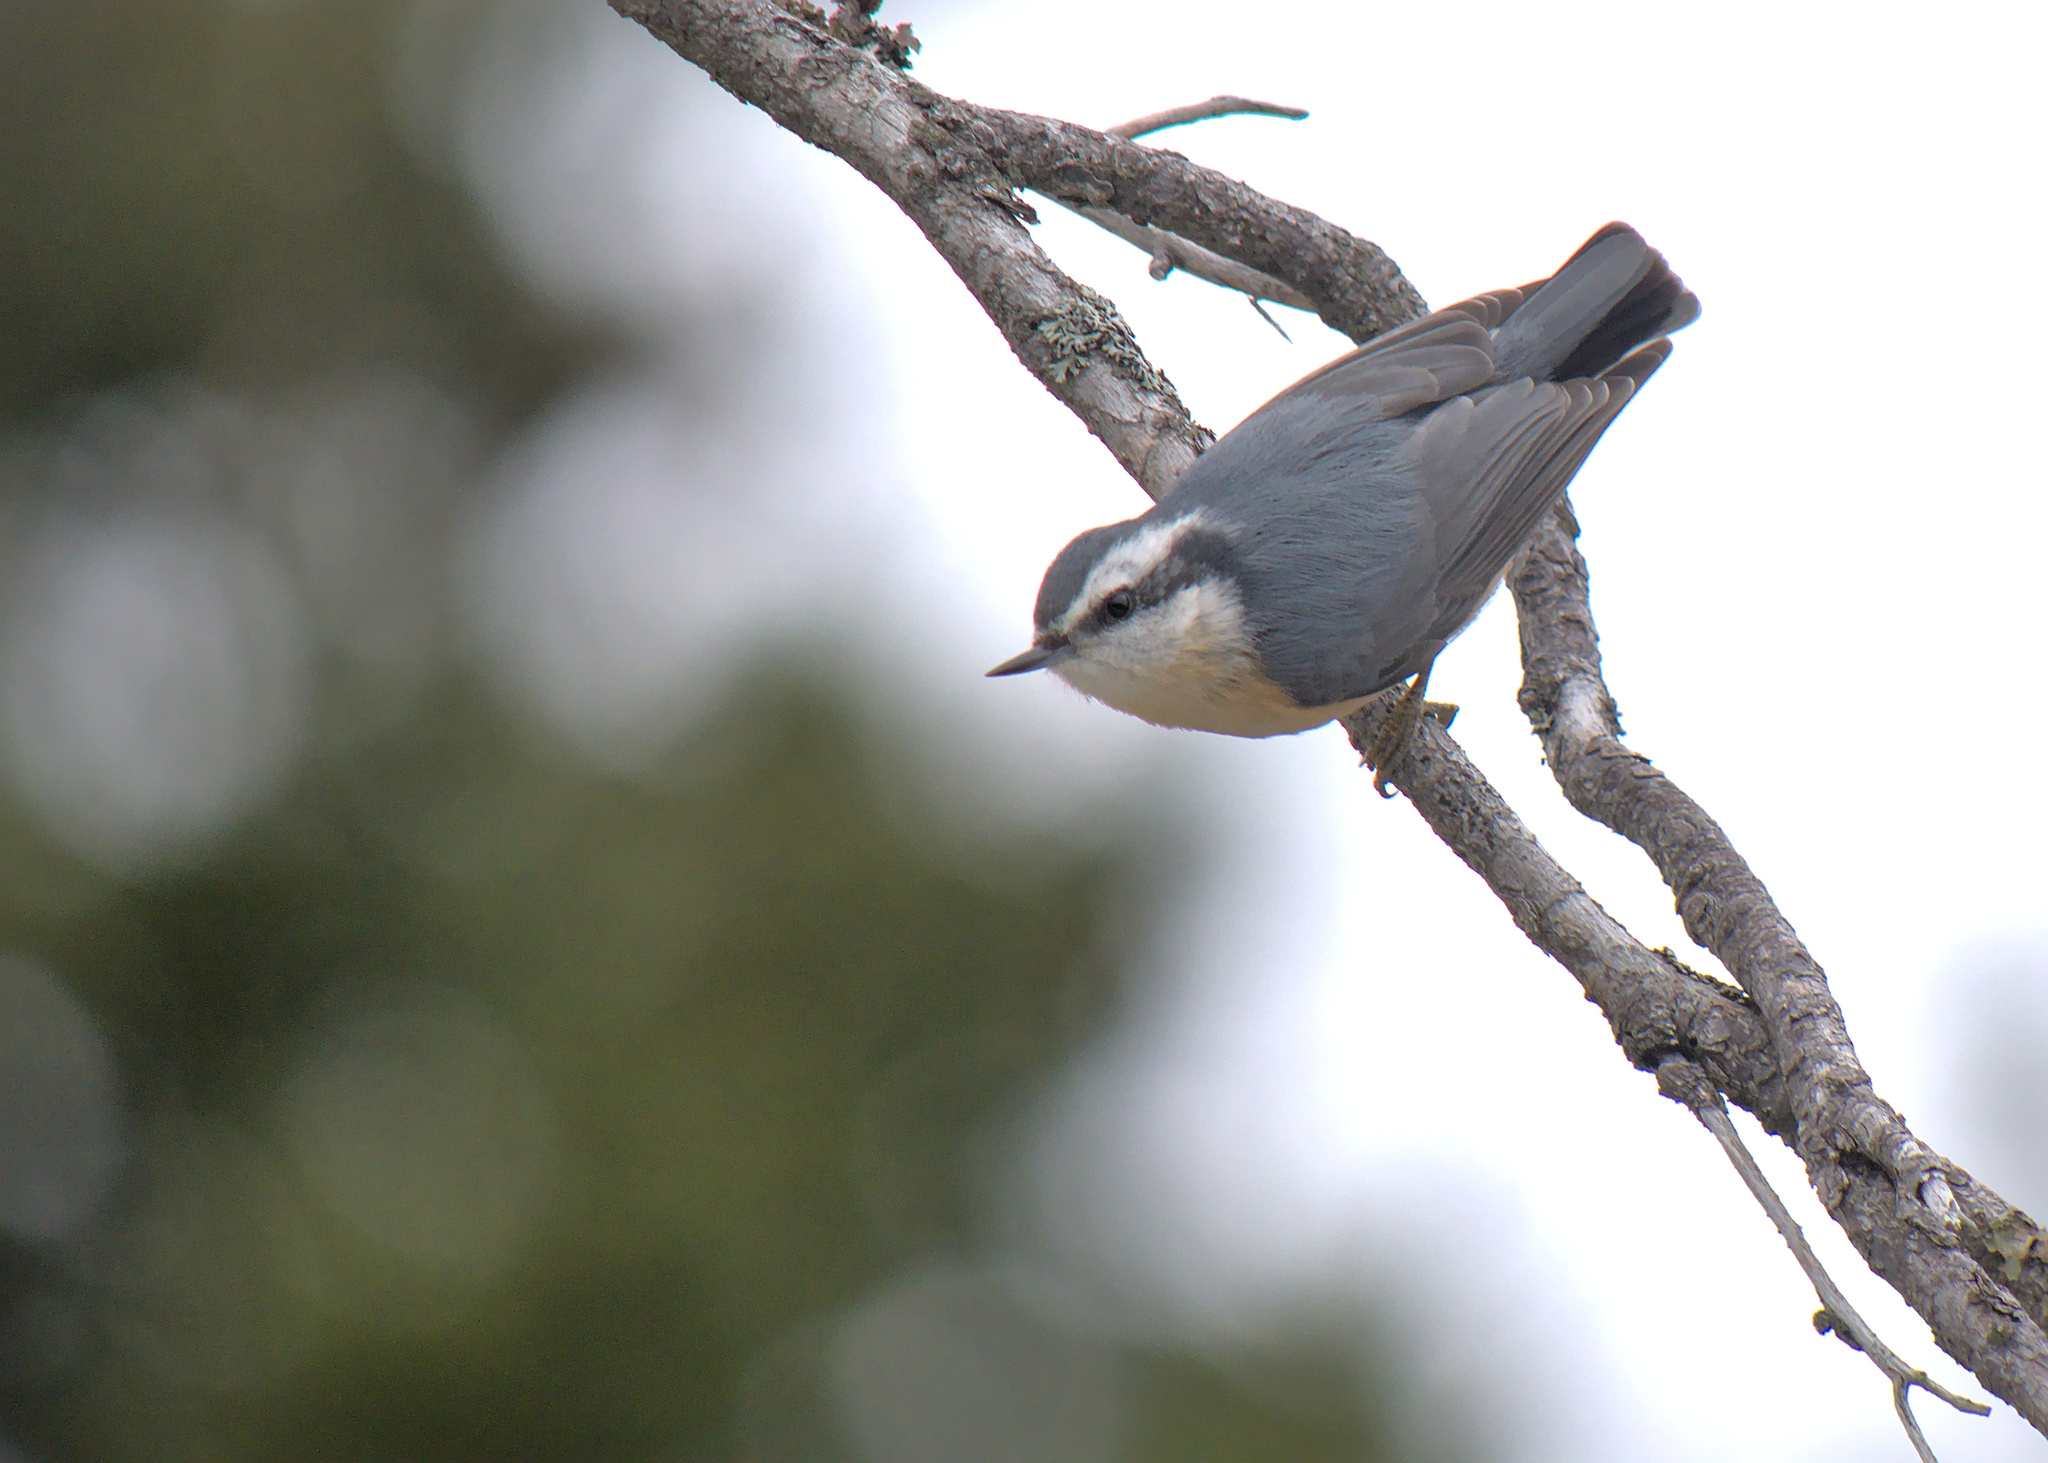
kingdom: Animalia
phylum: Chordata
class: Aves
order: Passeriformes
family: Sittidae
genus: Sitta
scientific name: Sitta canadensis
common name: Red-breasted nuthatch
